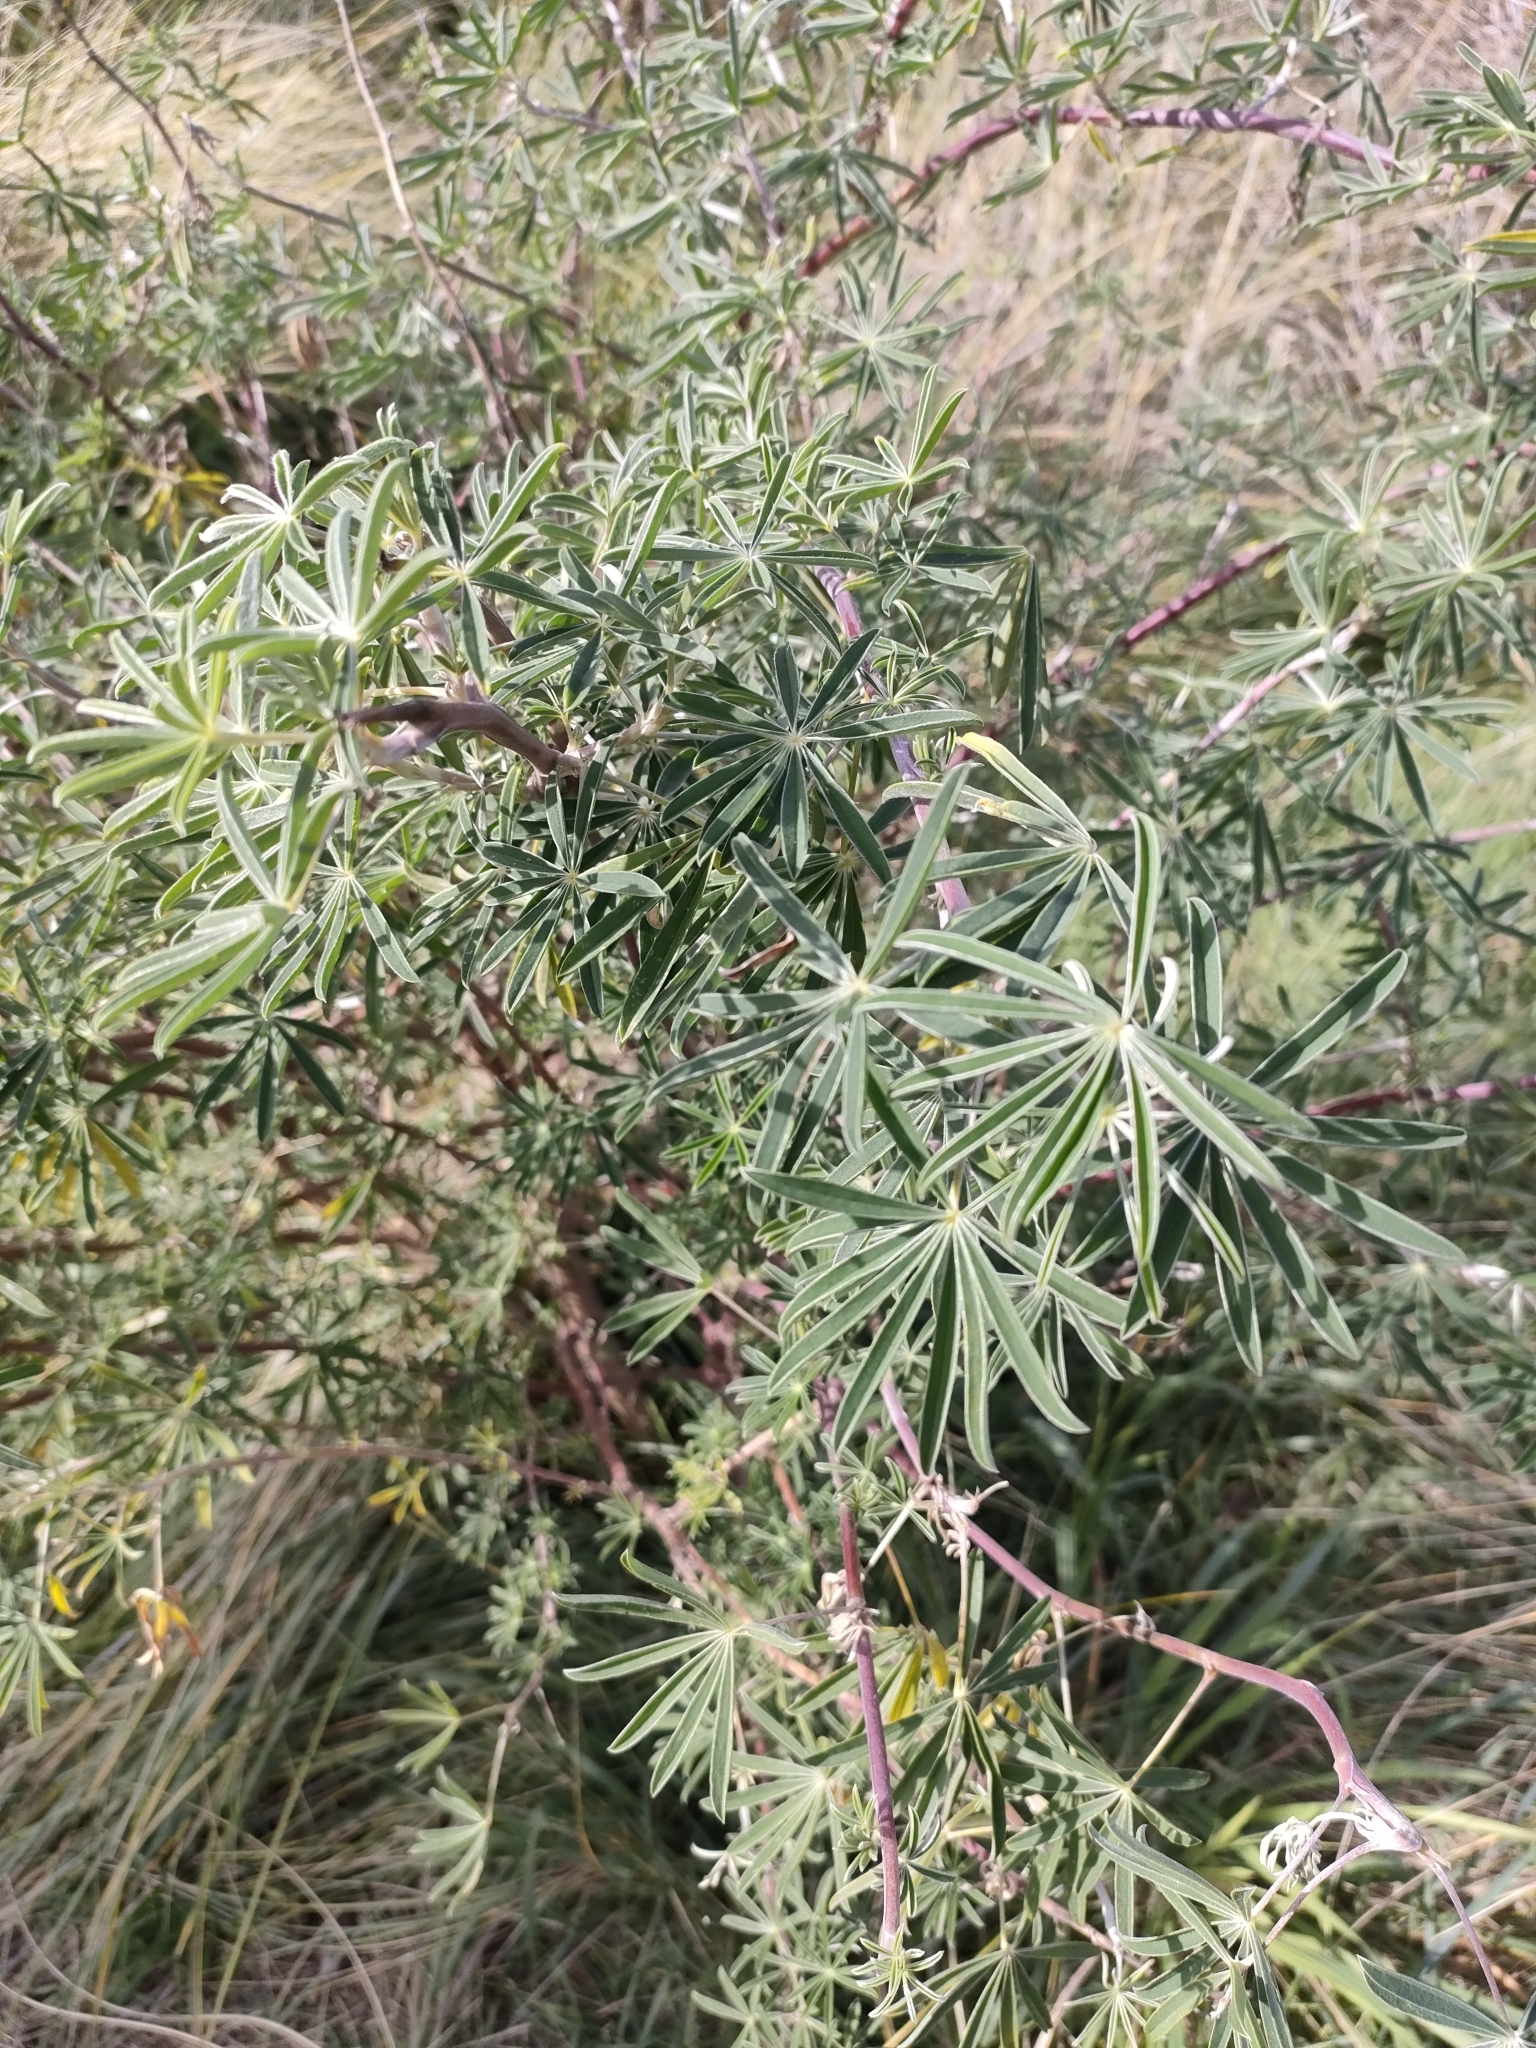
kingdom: Plantae
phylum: Tracheophyta
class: Magnoliopsida
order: Fabales
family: Fabaceae
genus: Lupinus
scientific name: Lupinus arboreus
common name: Yellow bush lupine
